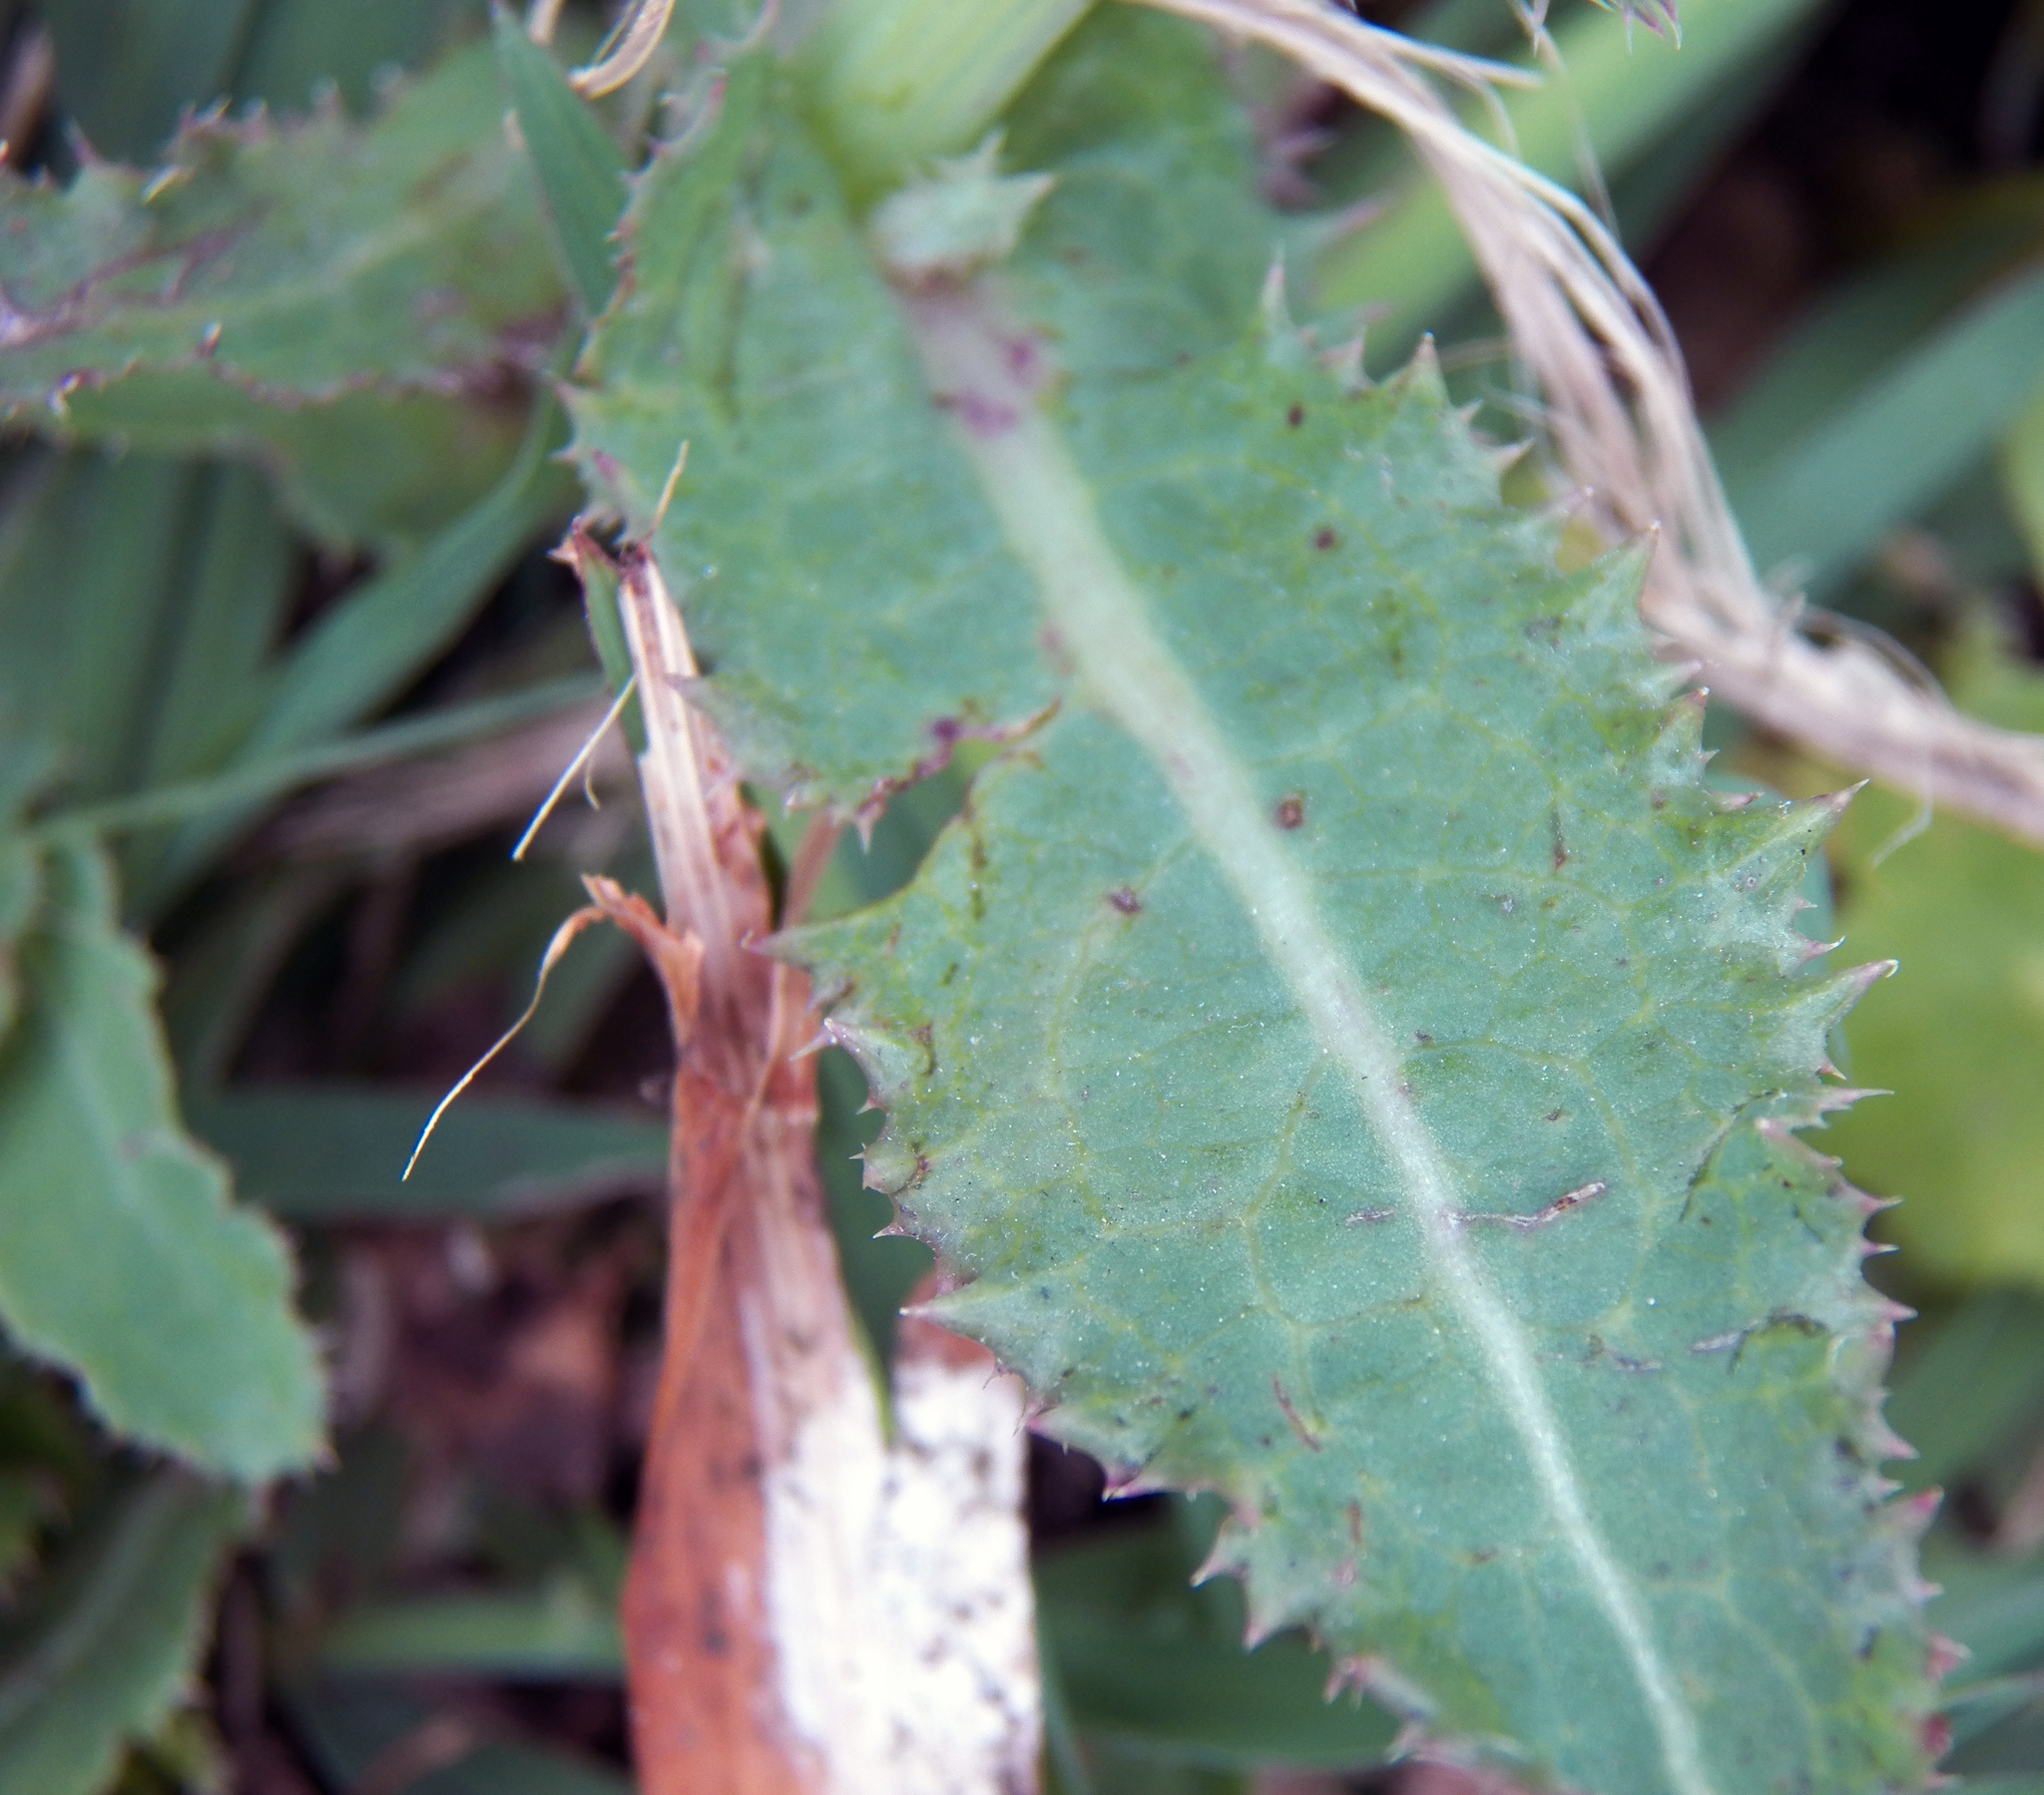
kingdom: Plantae
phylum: Tracheophyta
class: Magnoliopsida
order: Asterales
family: Asteraceae
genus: Sonchus
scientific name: Sonchus asper
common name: Prickly sow-thistle
